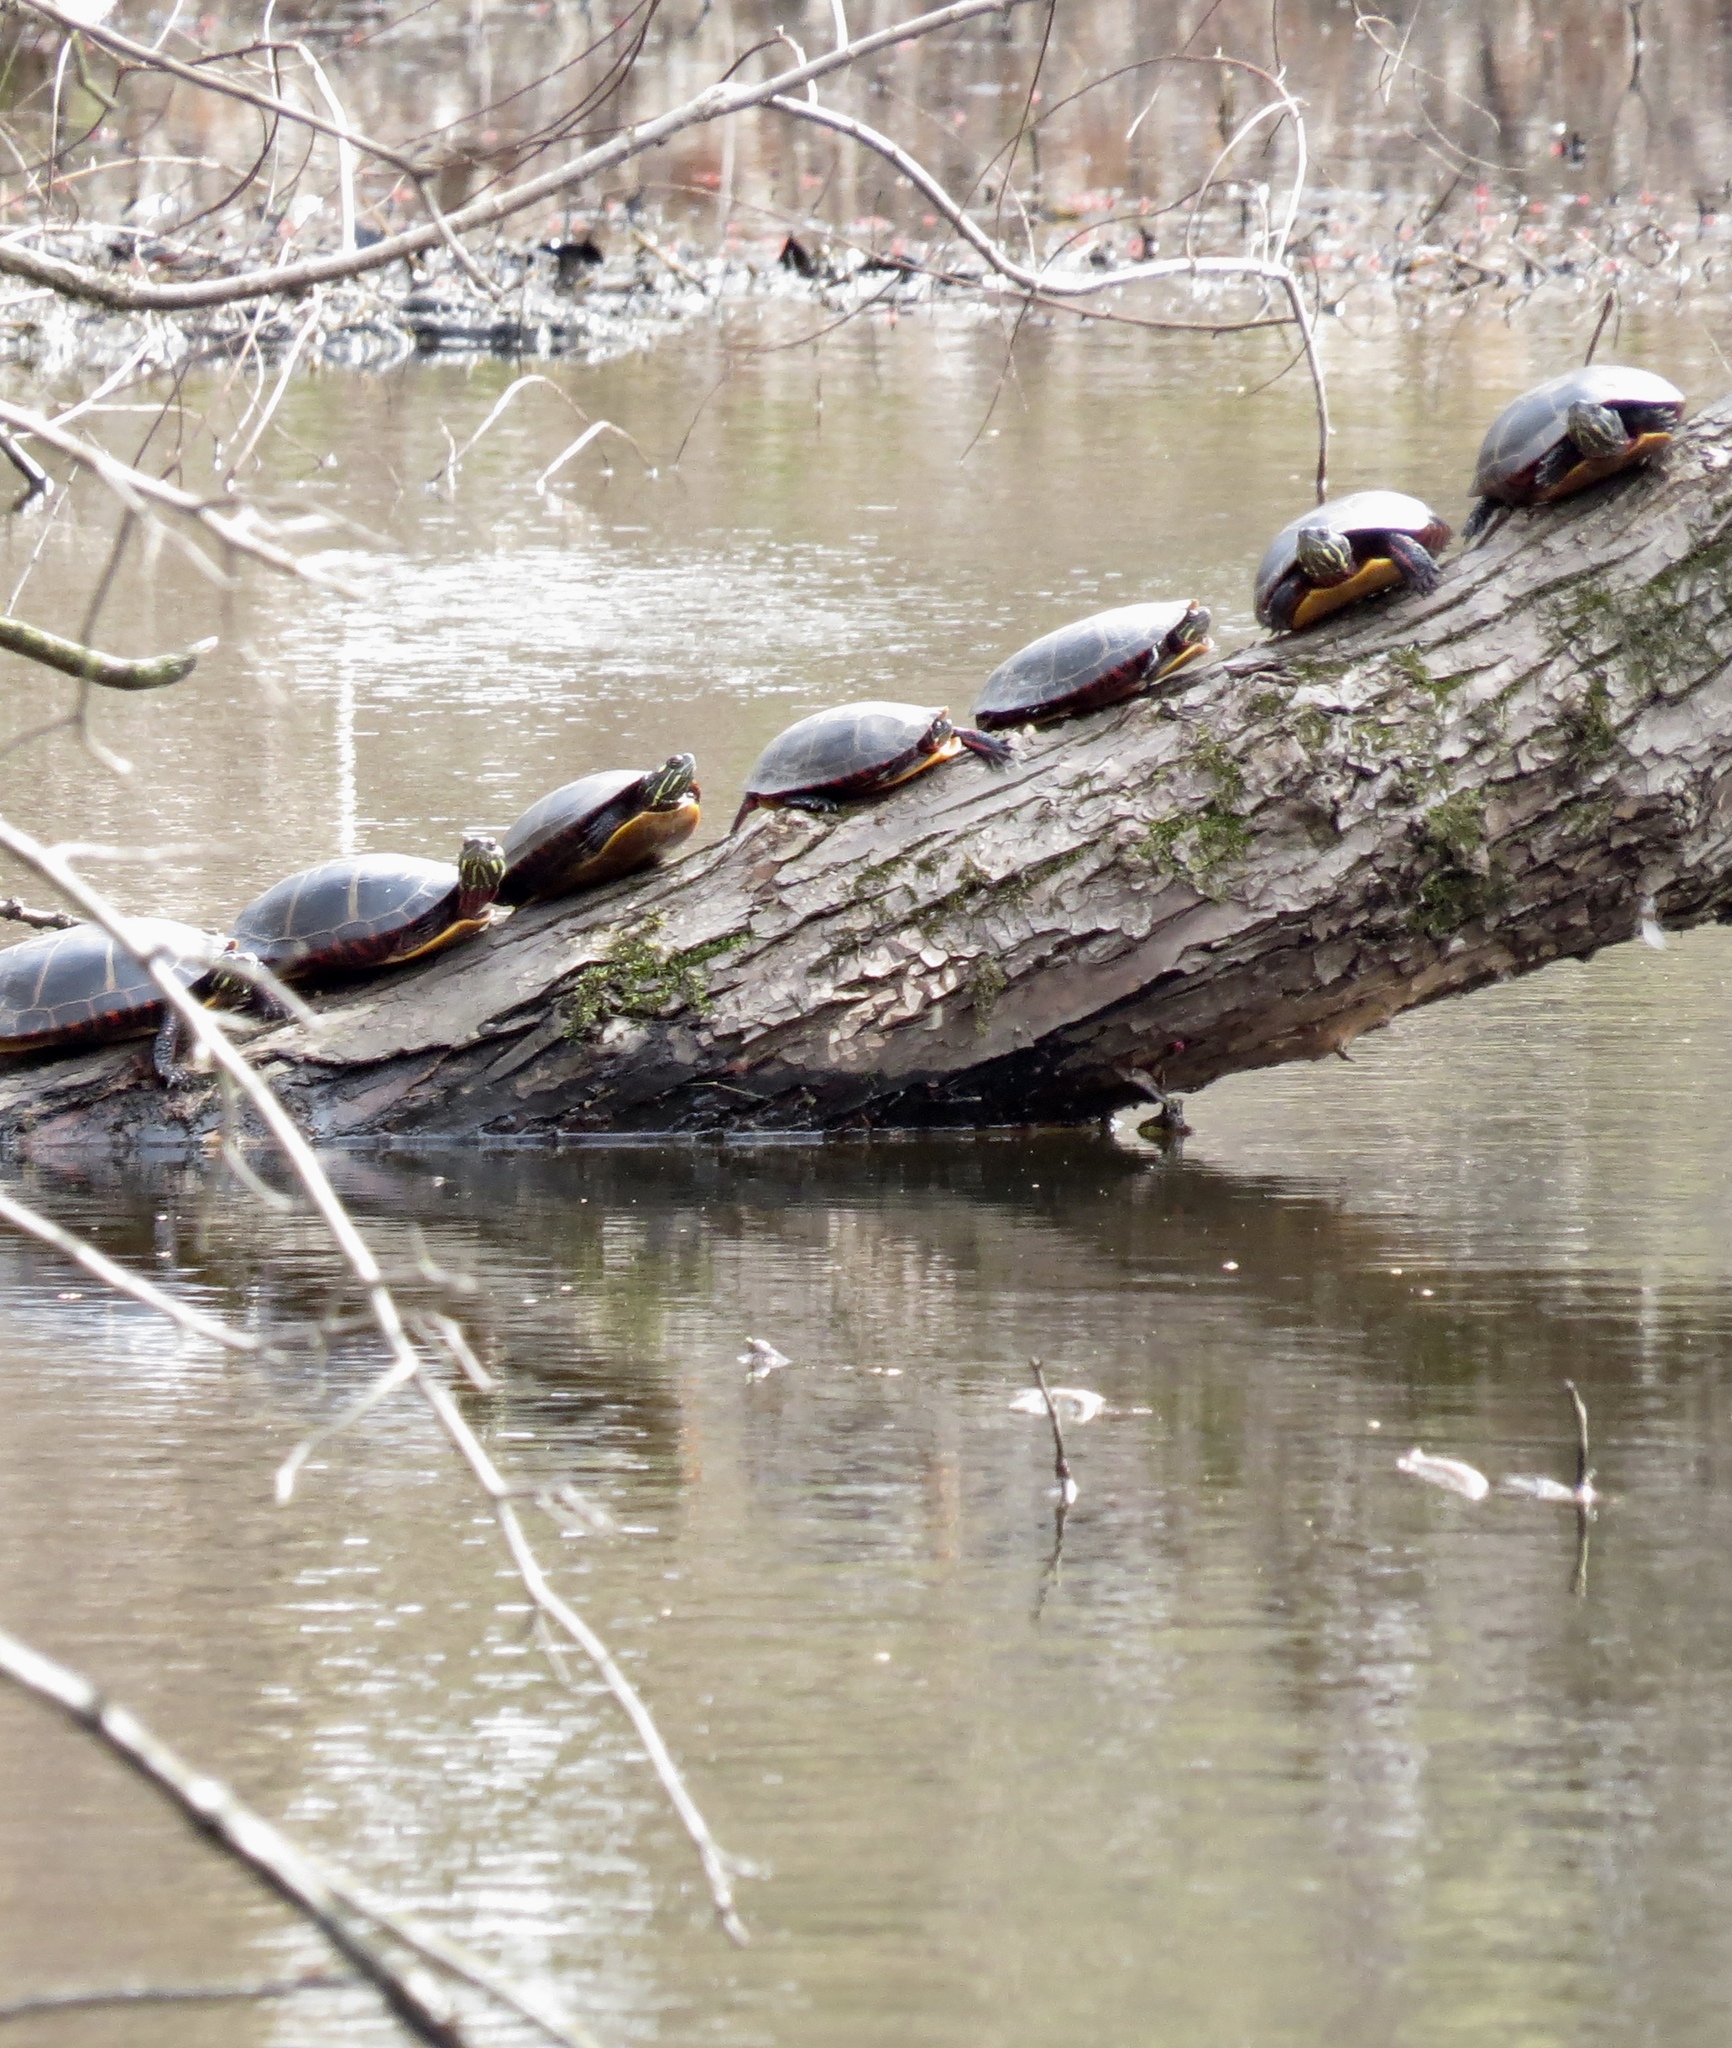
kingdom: Animalia
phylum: Chordata
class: Testudines
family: Emydidae
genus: Chrysemys
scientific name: Chrysemys picta
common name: Painted turtle
